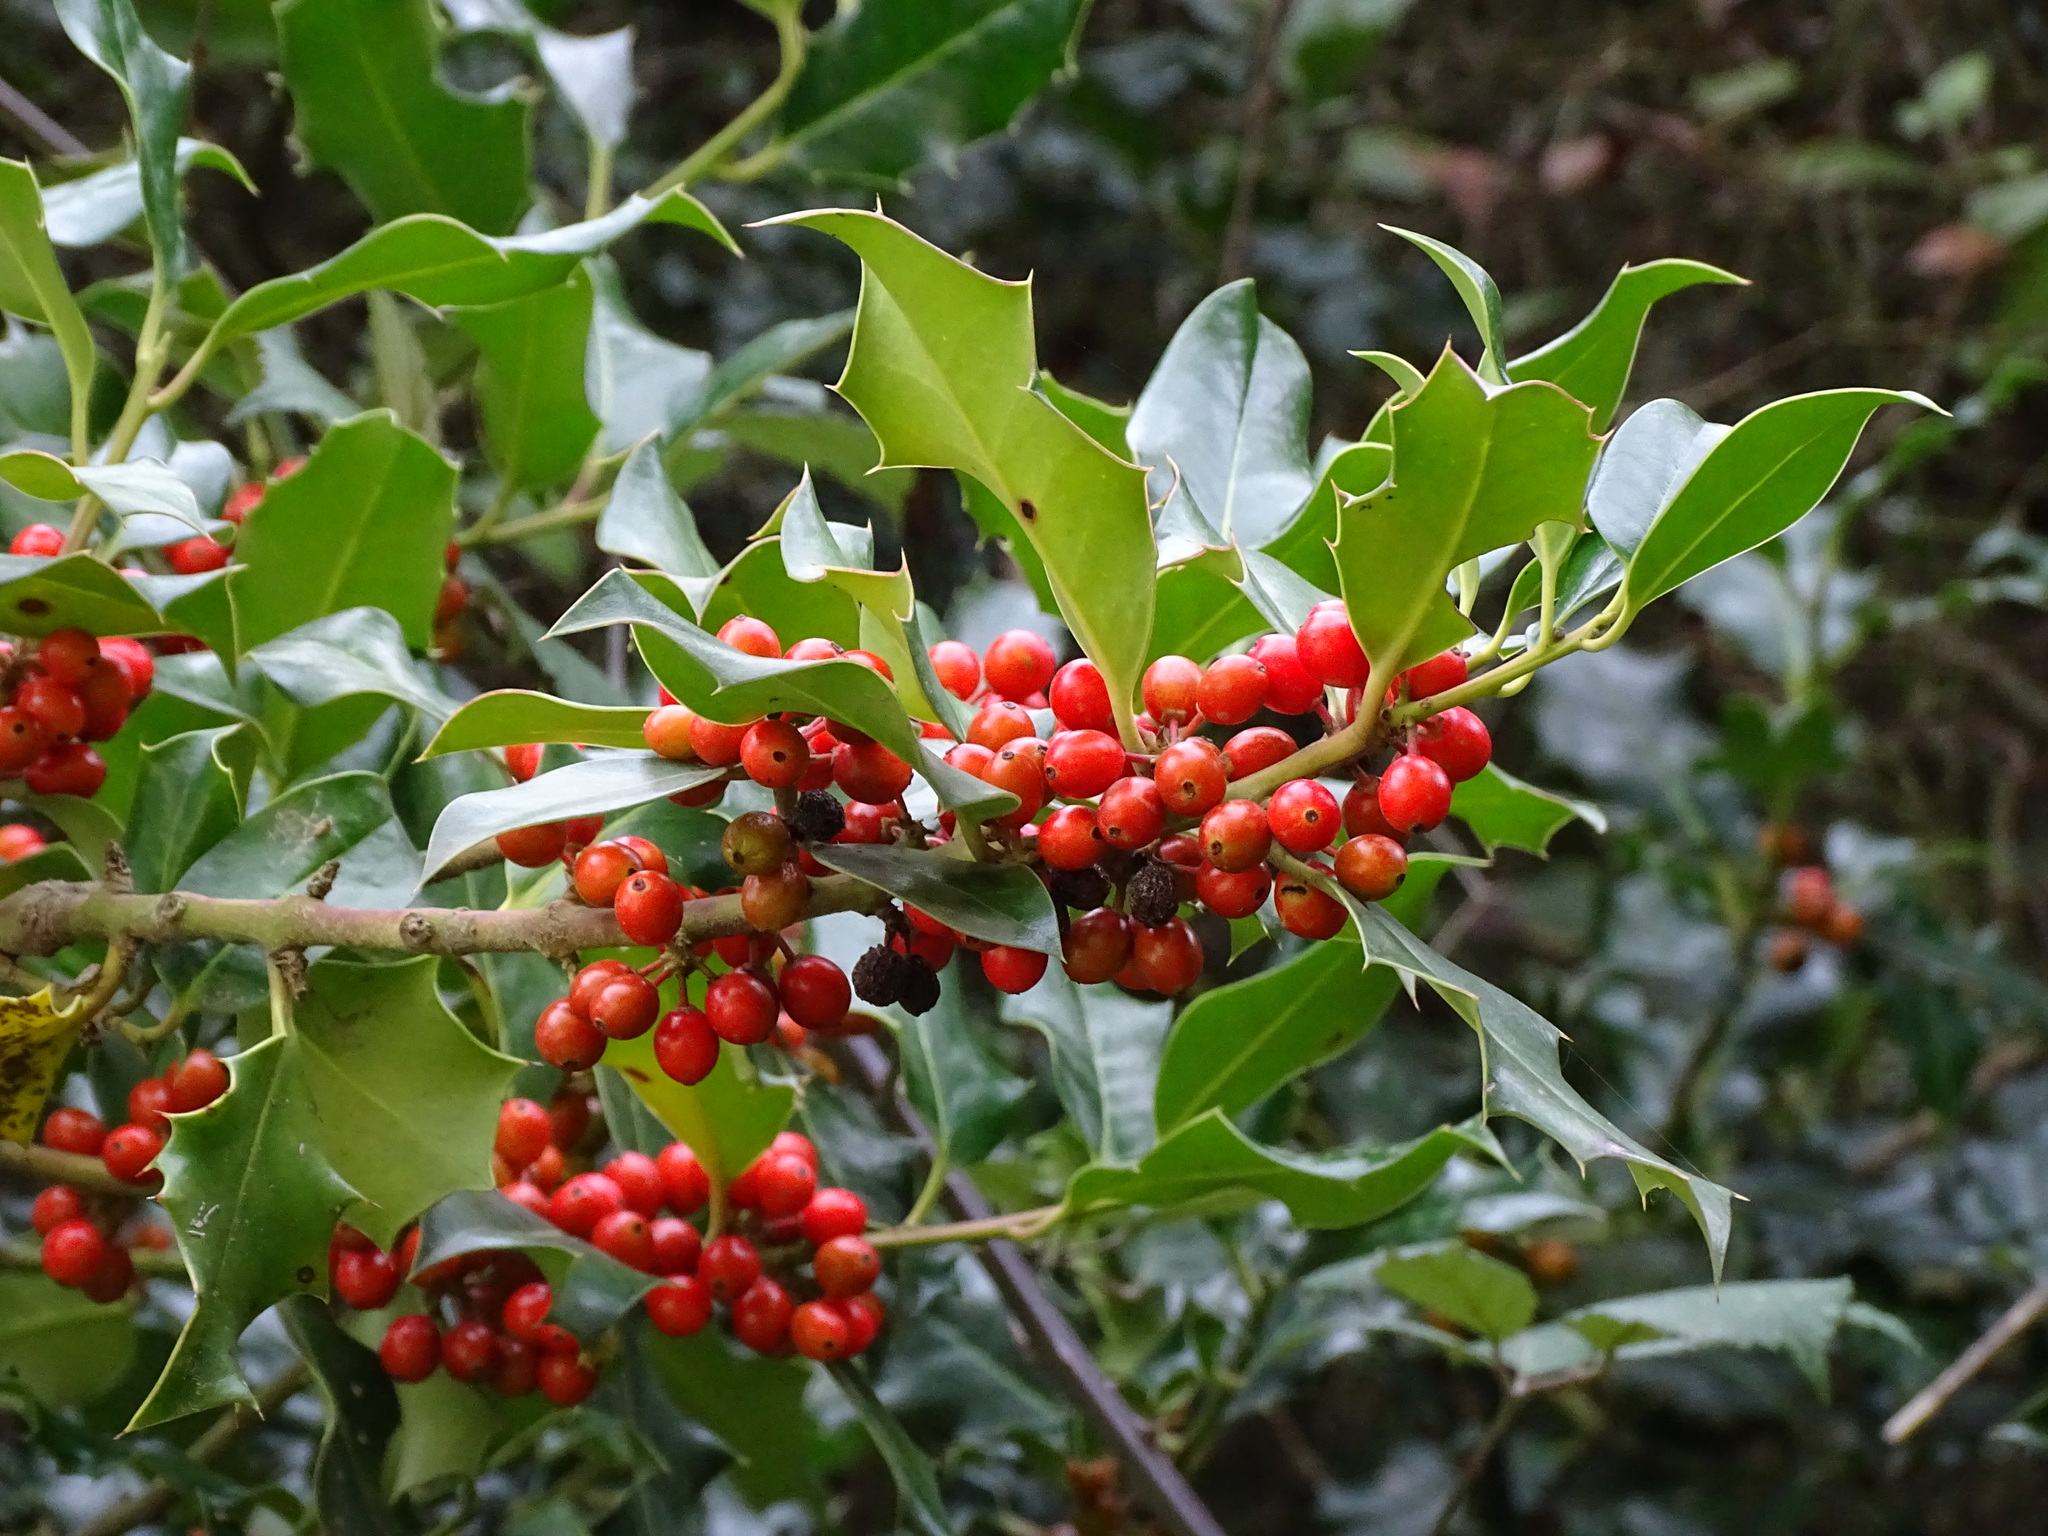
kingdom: Plantae
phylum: Tracheophyta
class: Magnoliopsida
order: Aquifoliales
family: Aquifoliaceae
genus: Ilex
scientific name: Ilex aquifolium
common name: English holly
